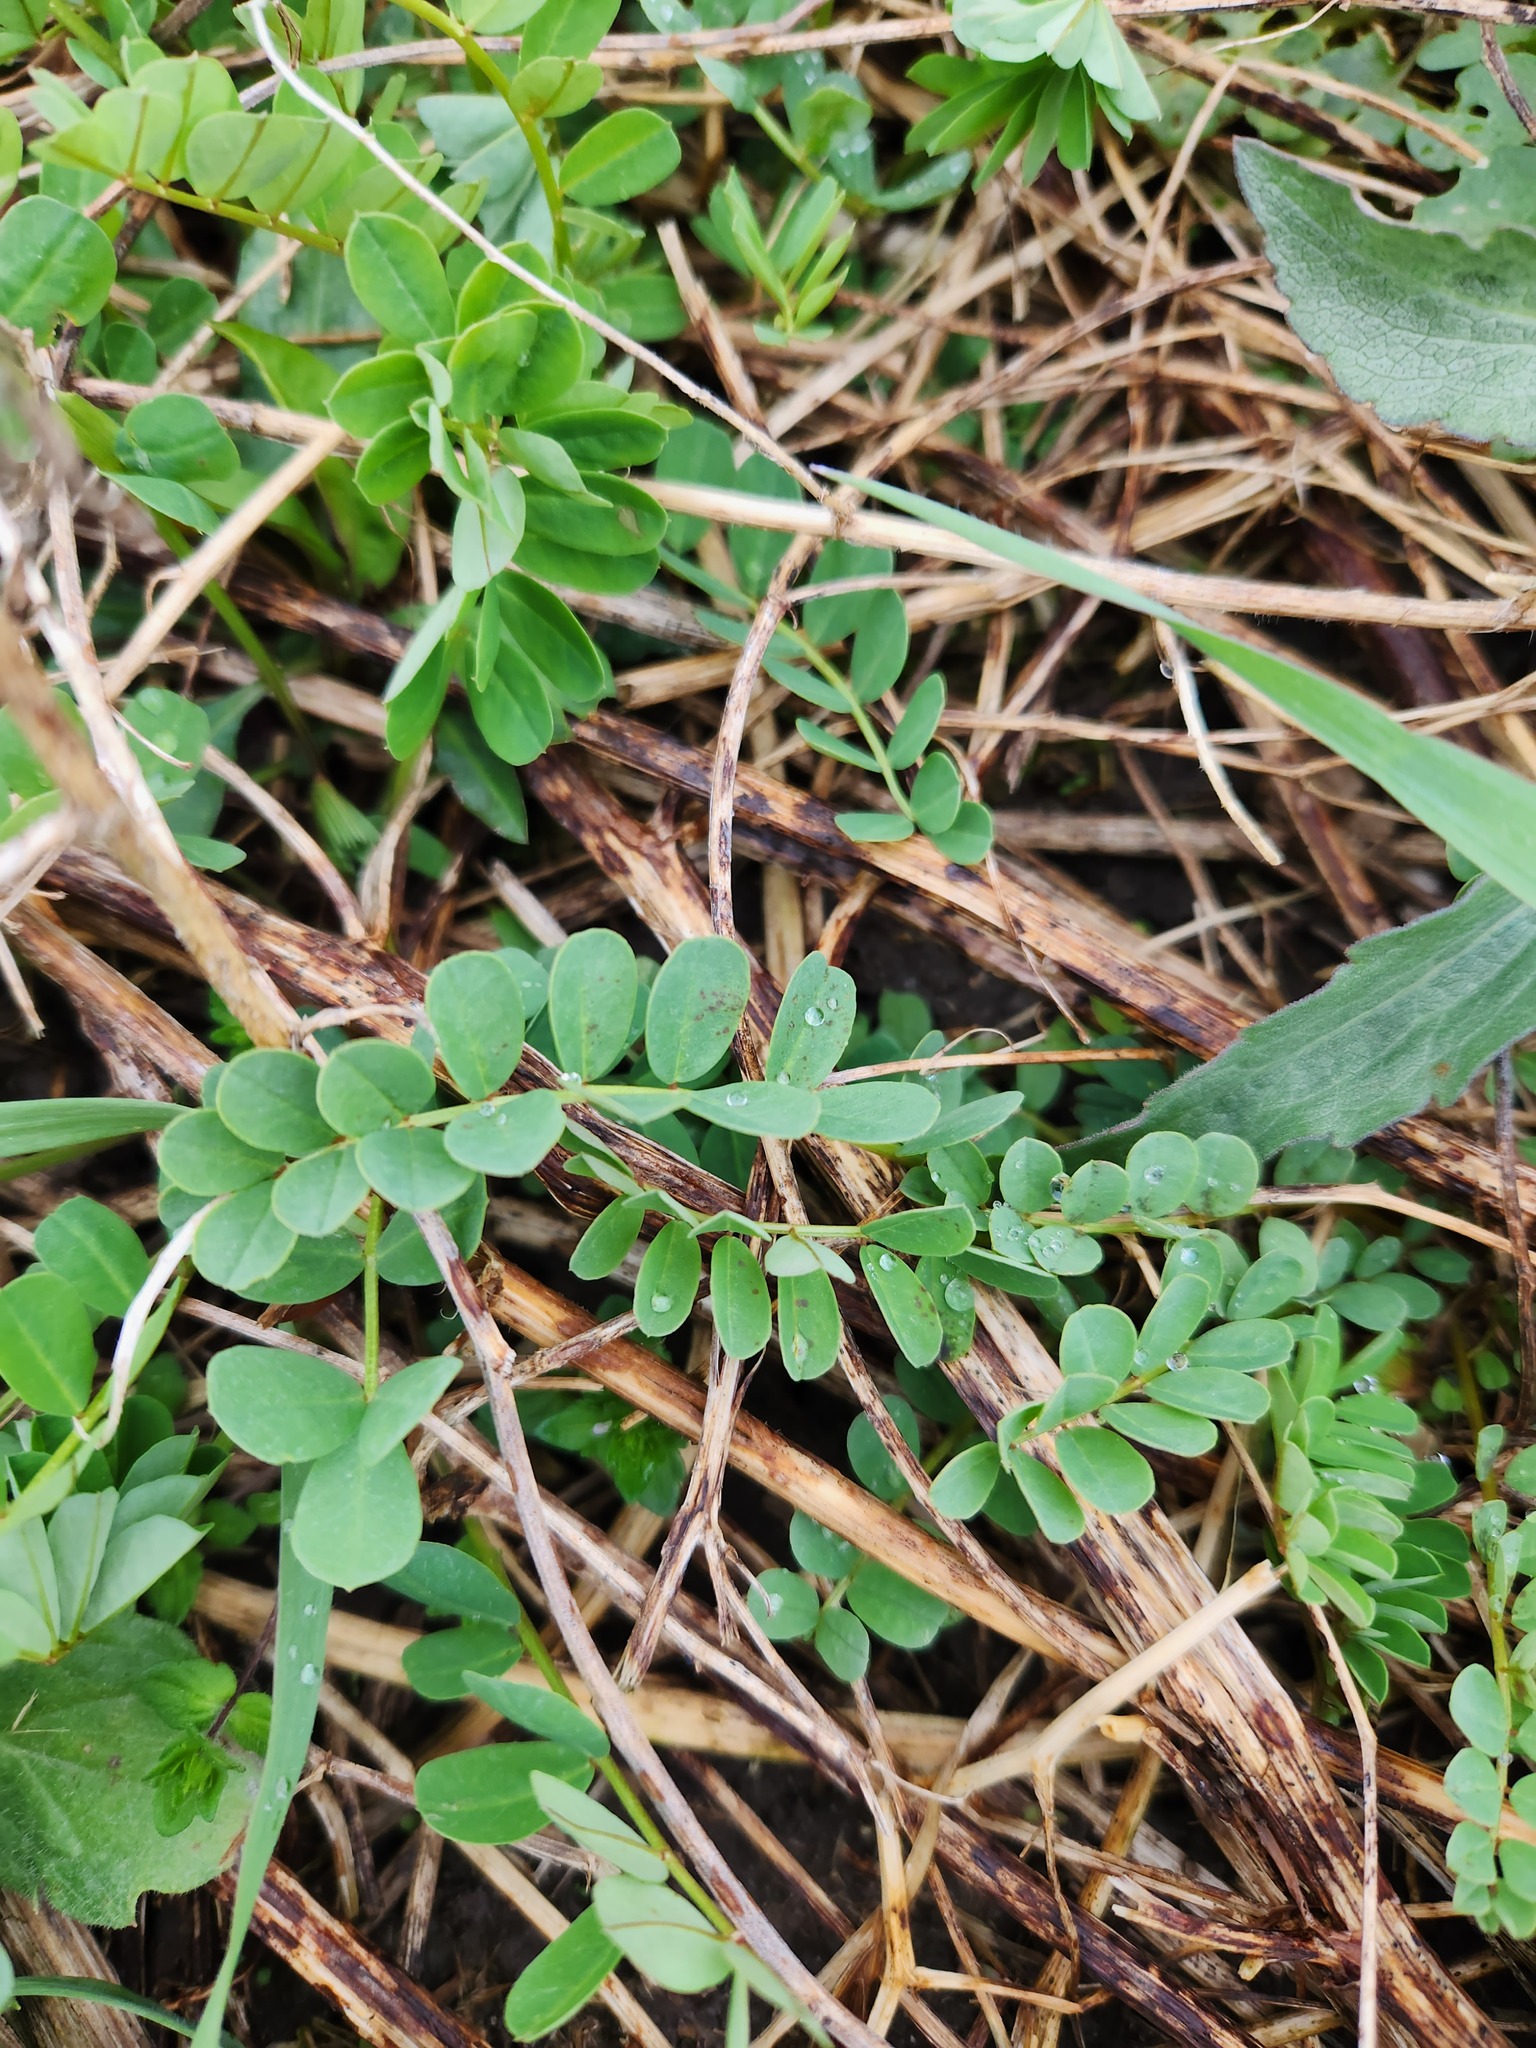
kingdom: Plantae
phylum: Tracheophyta
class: Magnoliopsida
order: Fabales
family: Fabaceae
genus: Coronilla
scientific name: Coronilla varia
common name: Crownvetch
